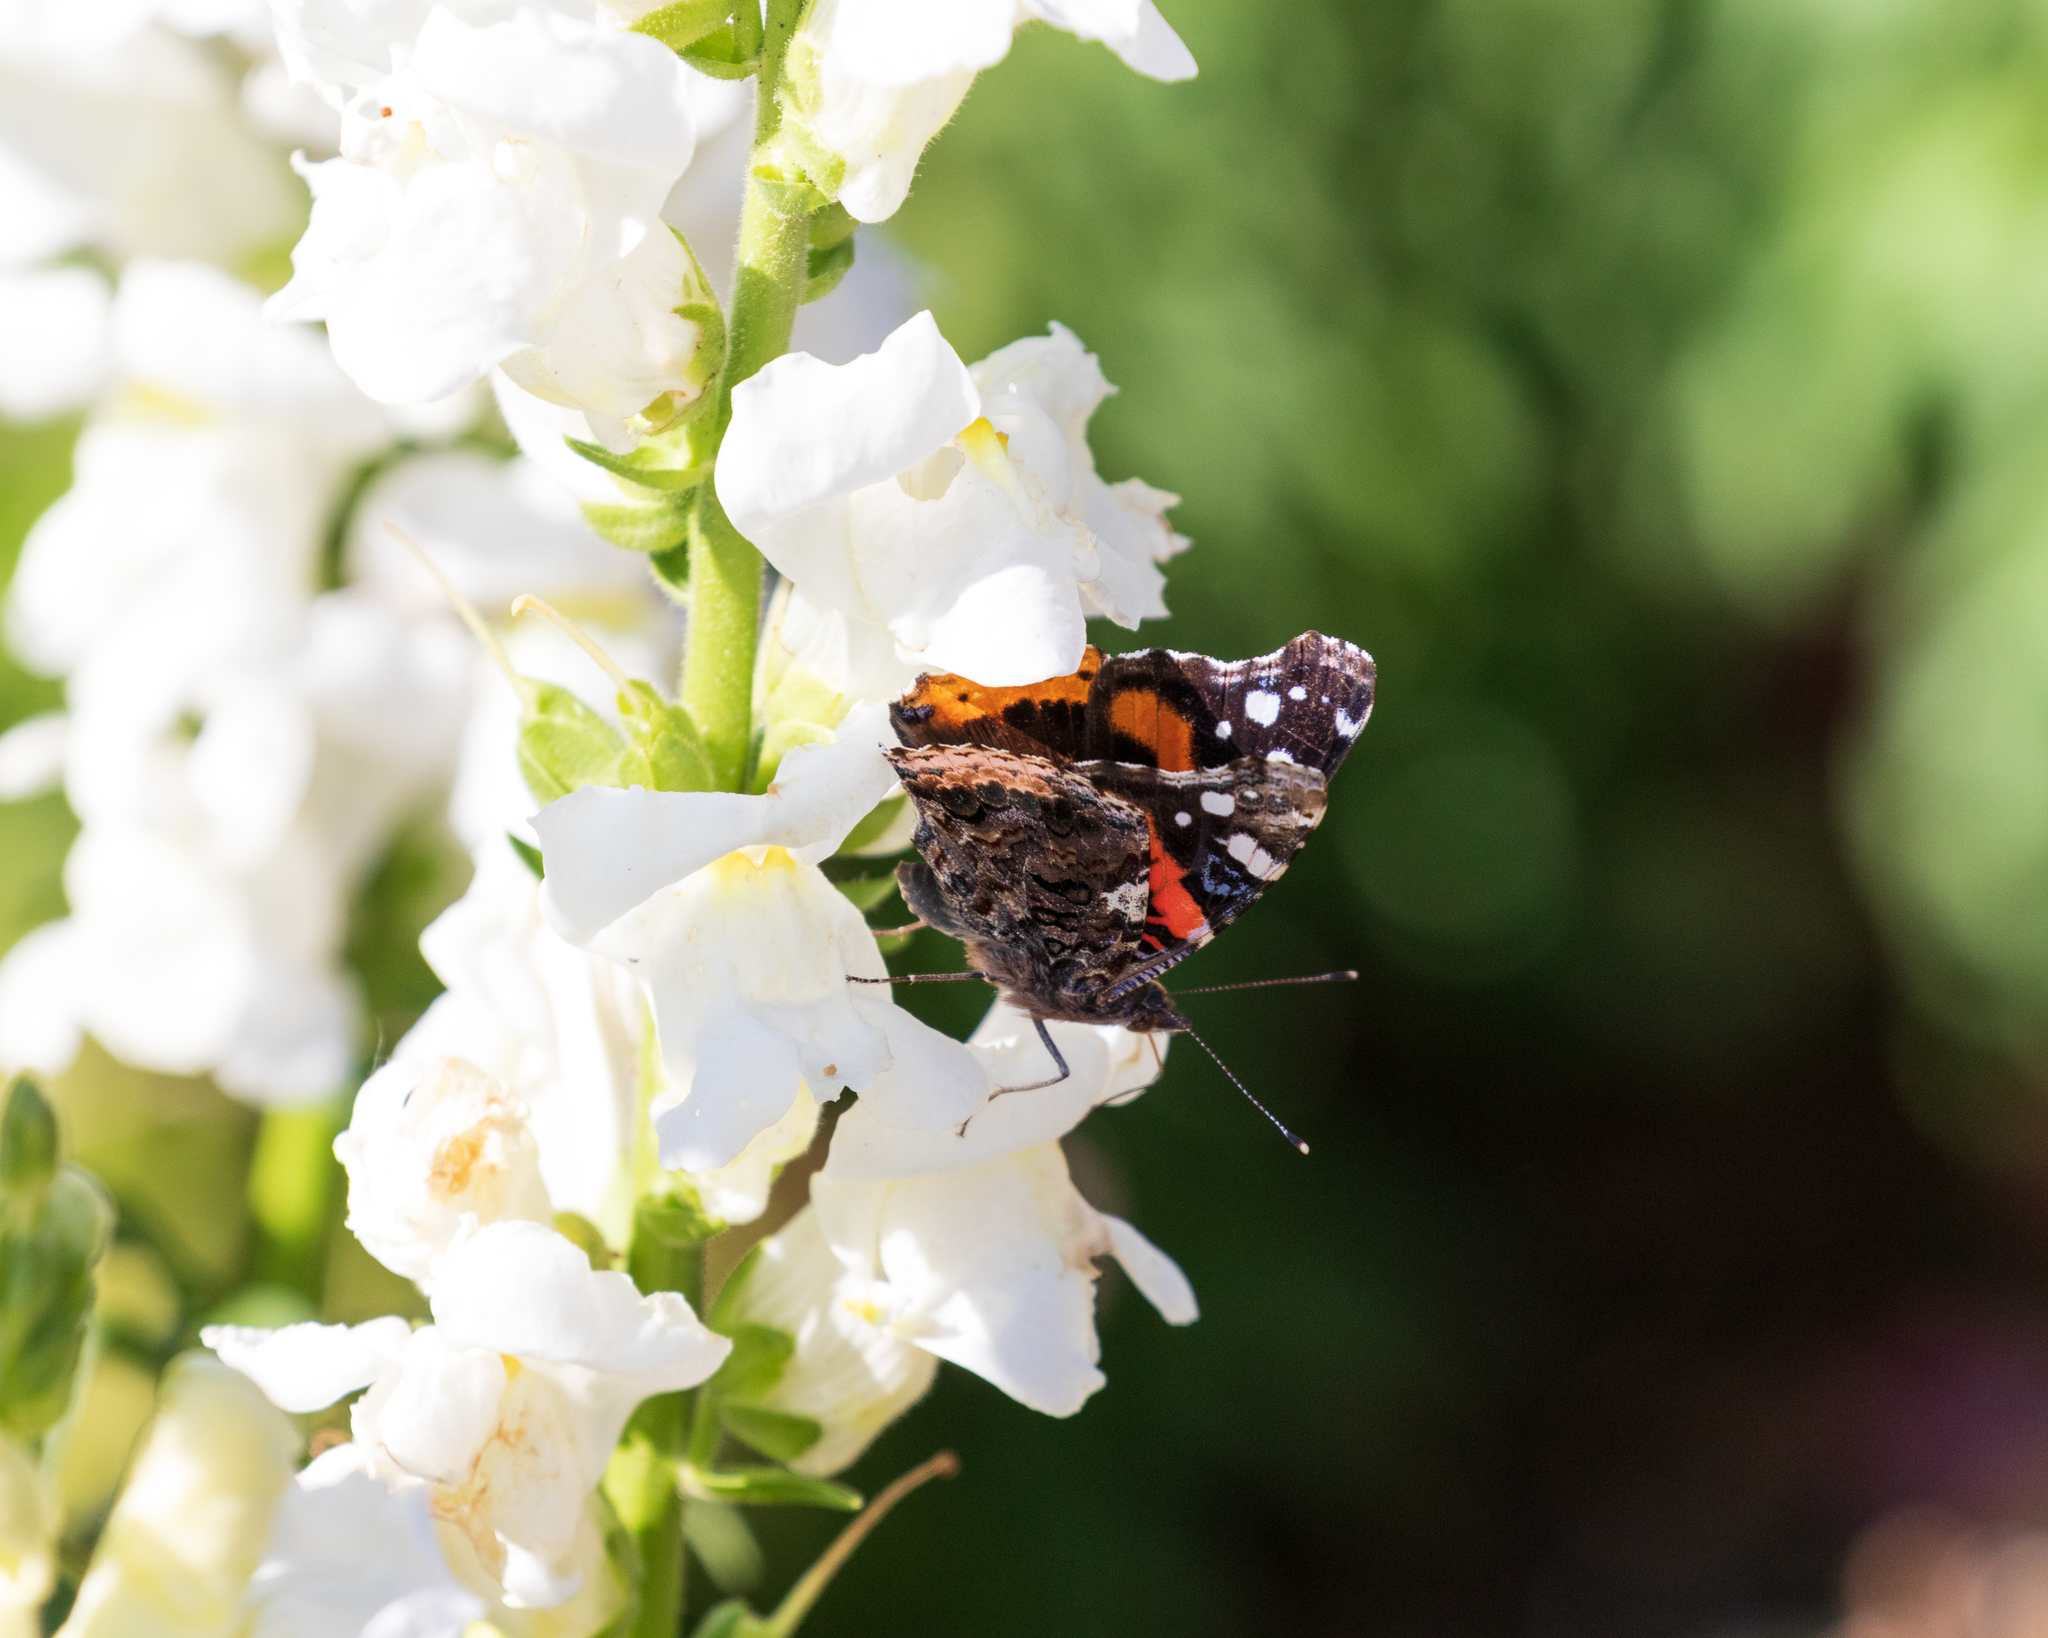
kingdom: Animalia
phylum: Arthropoda
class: Insecta
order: Lepidoptera
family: Nymphalidae
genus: Vanessa
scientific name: Vanessa atalanta
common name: Red admiral
